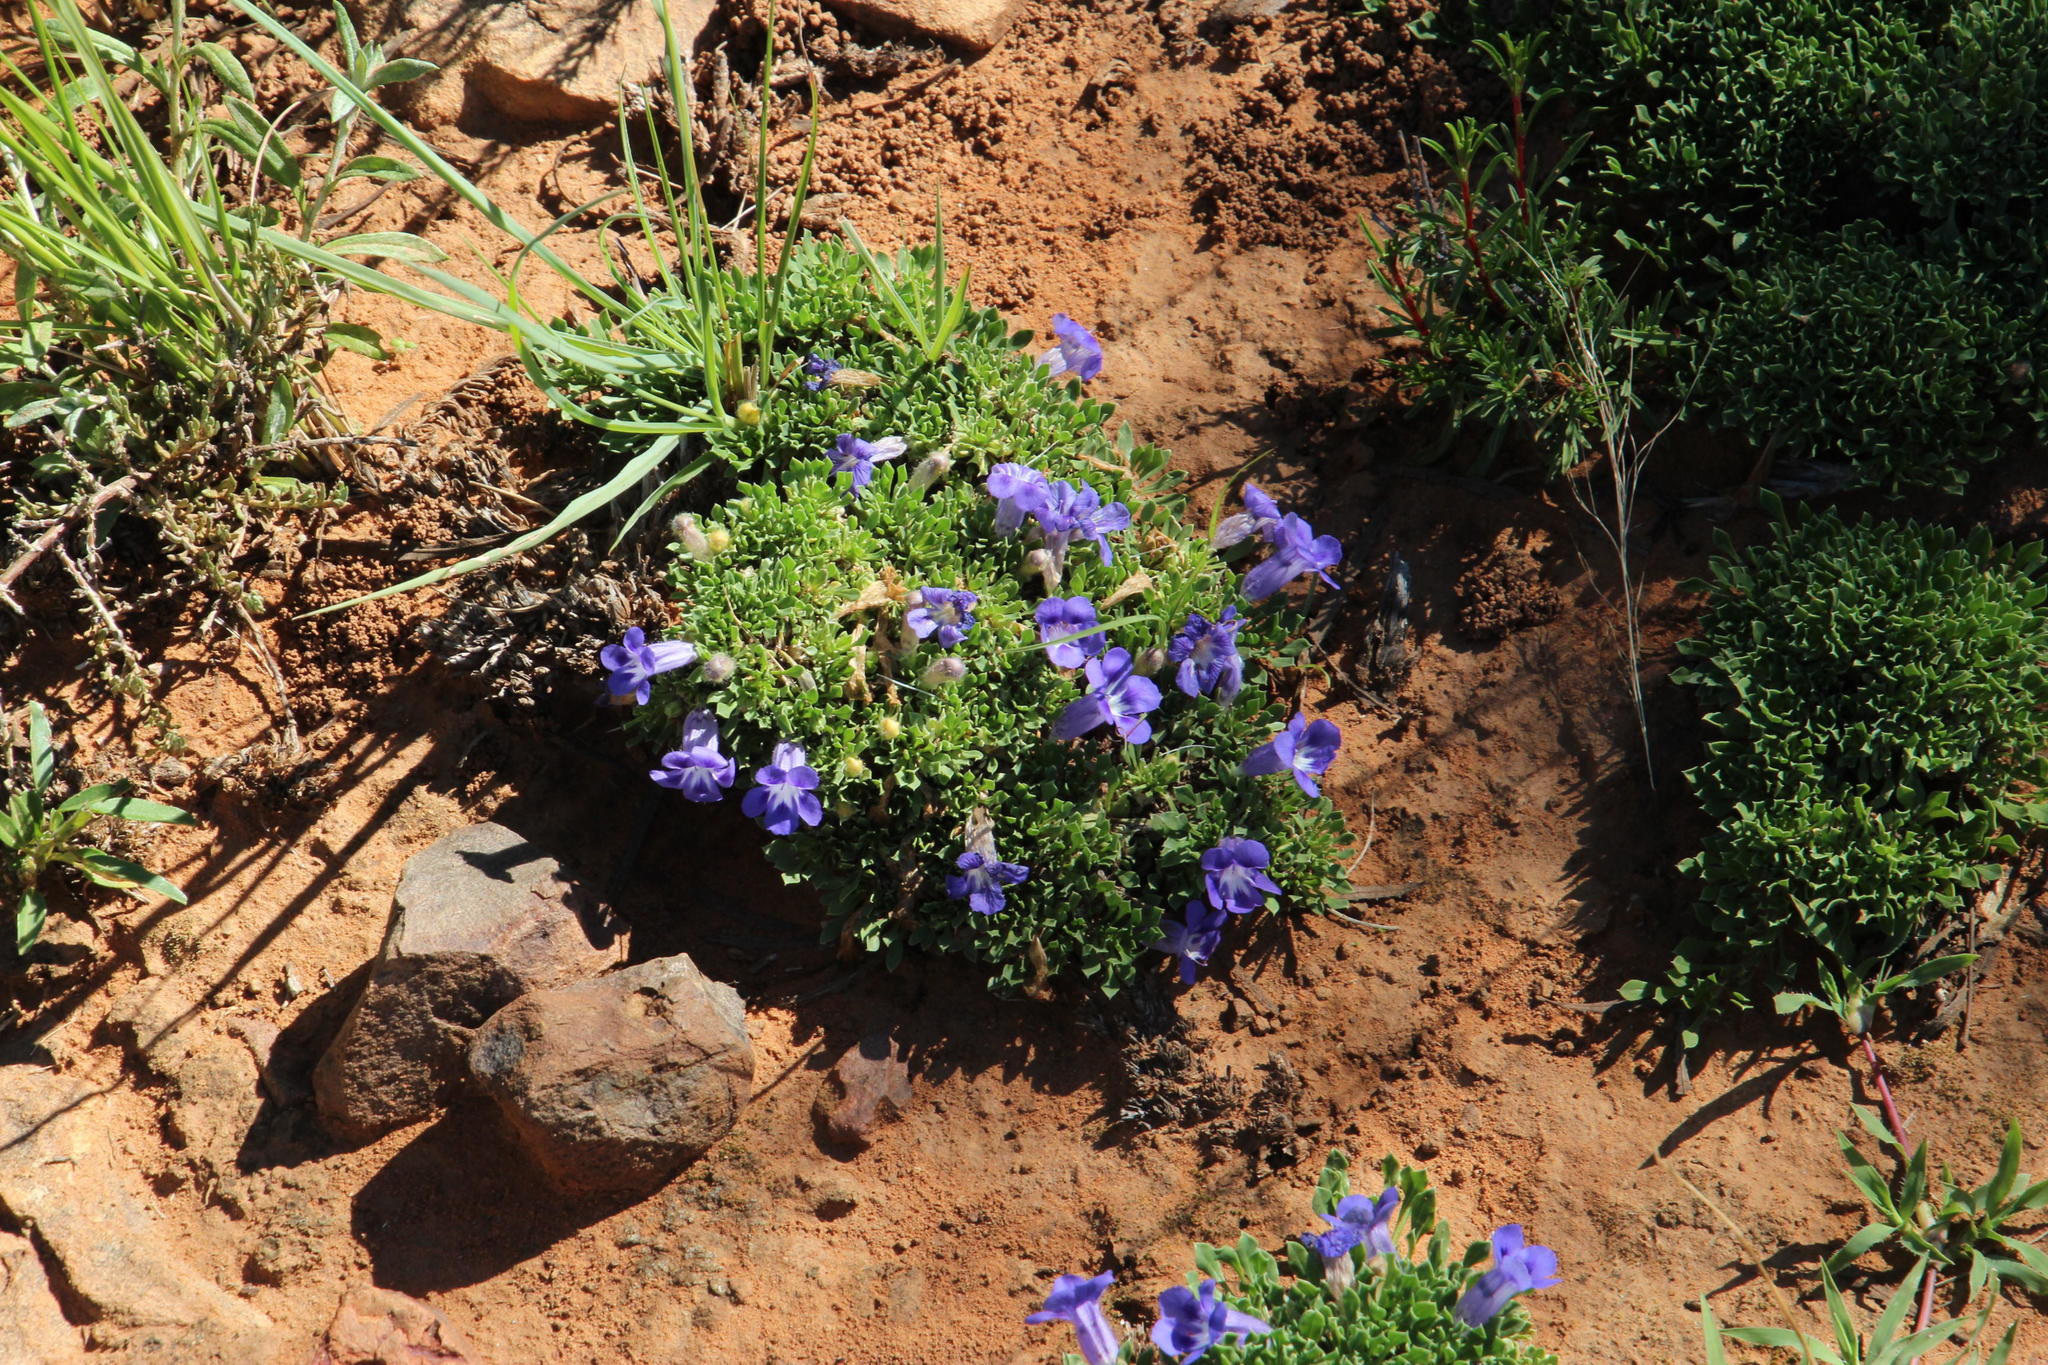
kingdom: Plantae
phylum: Tracheophyta
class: Magnoliopsida
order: Lamiales
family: Scrophulariaceae
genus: Aptosimum
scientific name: Aptosimum procumbens
